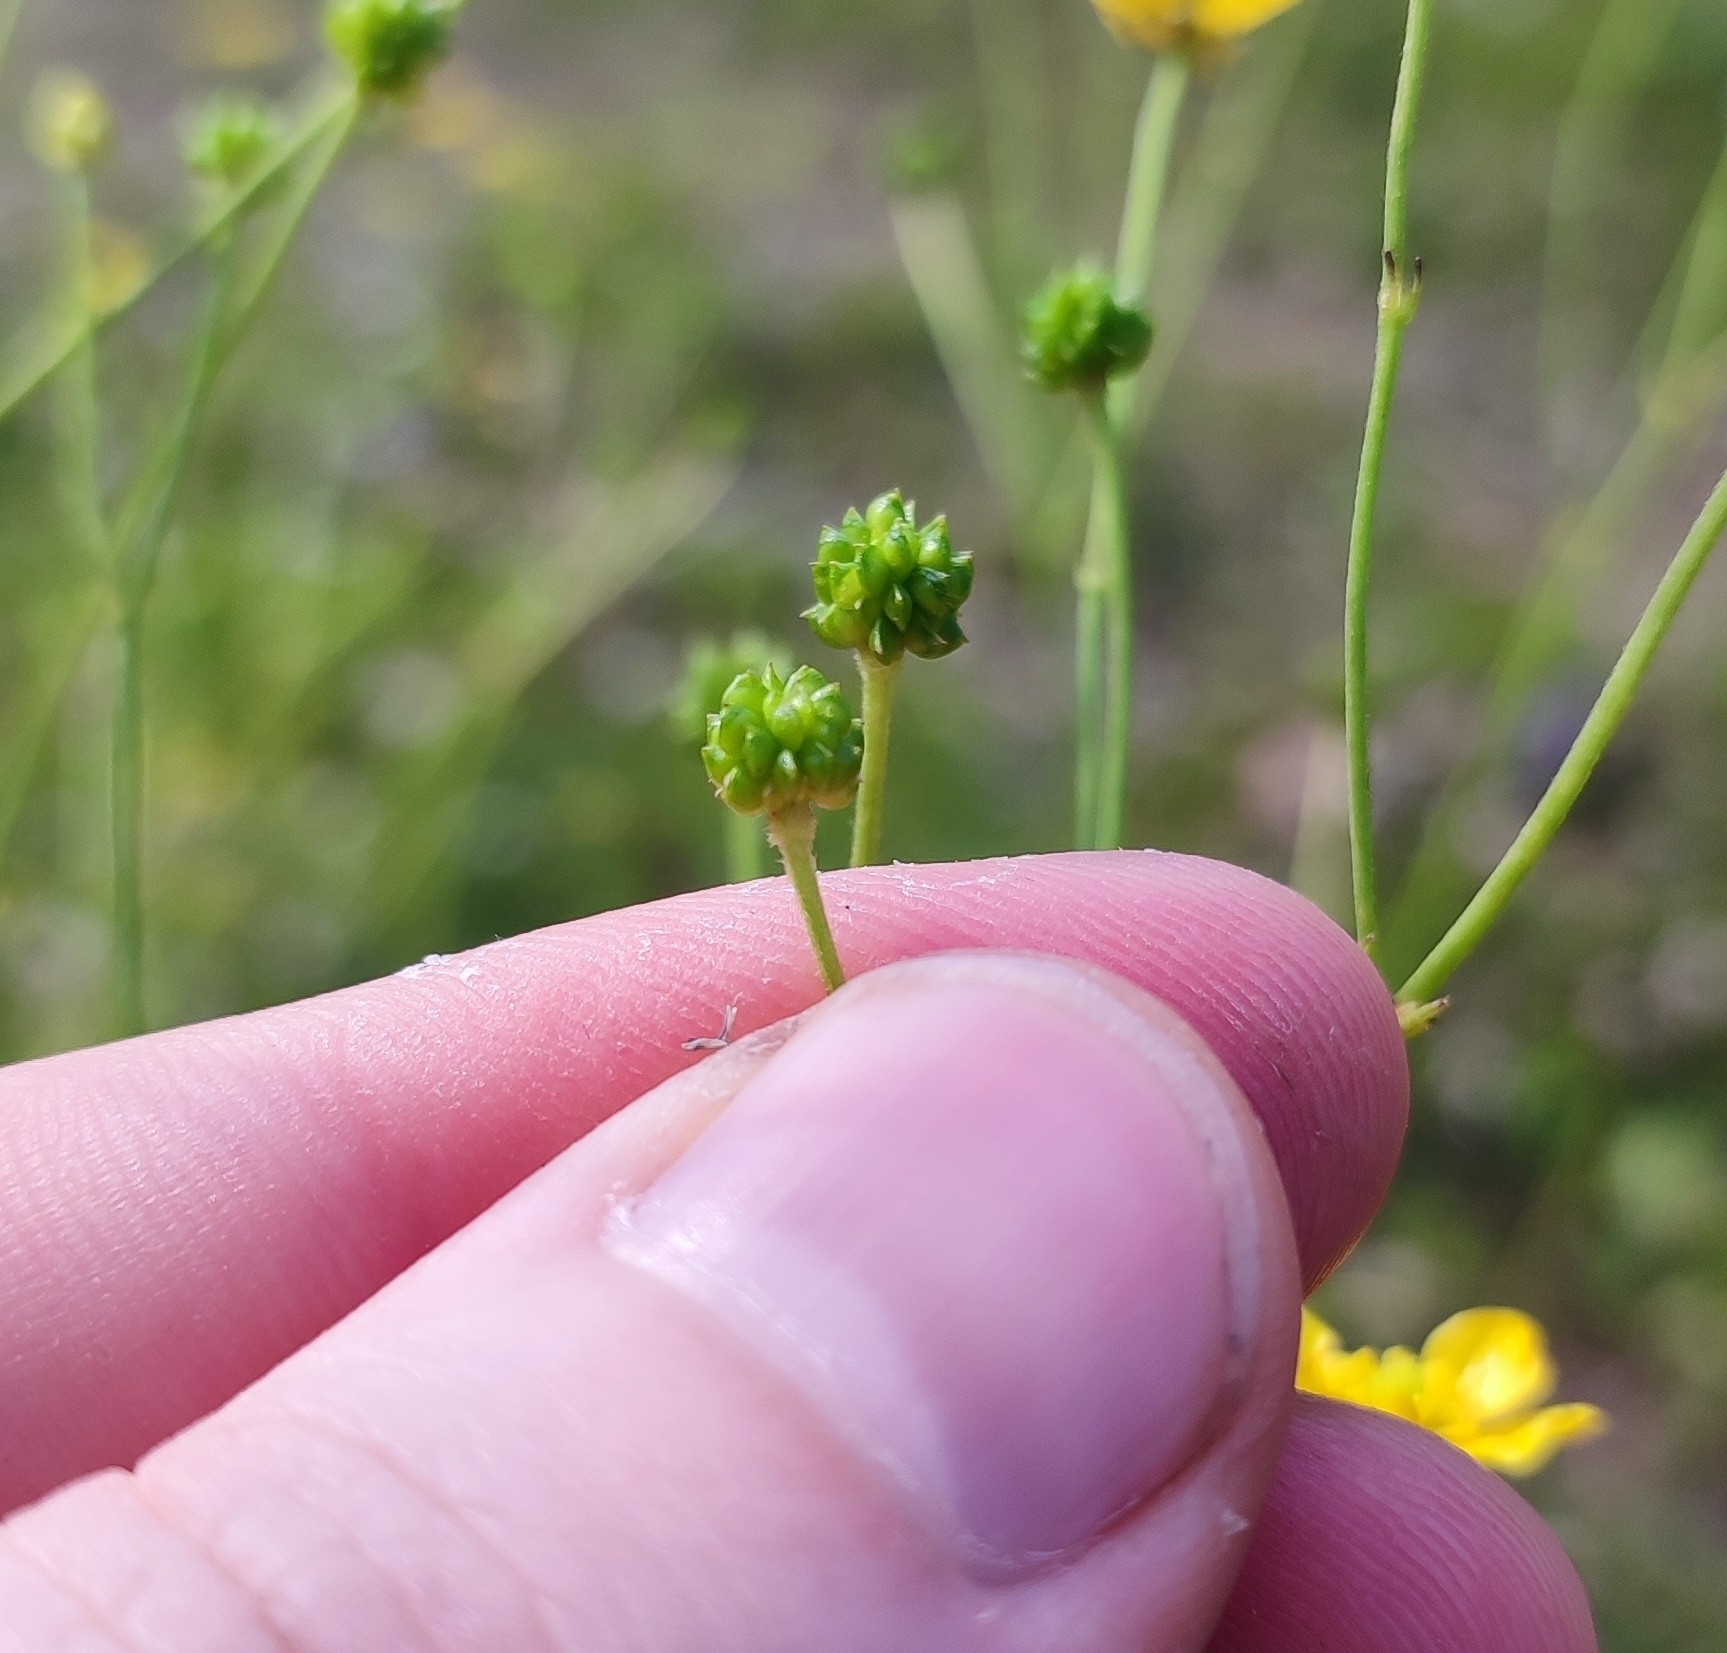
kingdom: Plantae
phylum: Tracheophyta
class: Magnoliopsida
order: Ranunculales
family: Ranunculaceae
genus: Ranunculus
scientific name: Ranunculus acris
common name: Meadow buttercup
